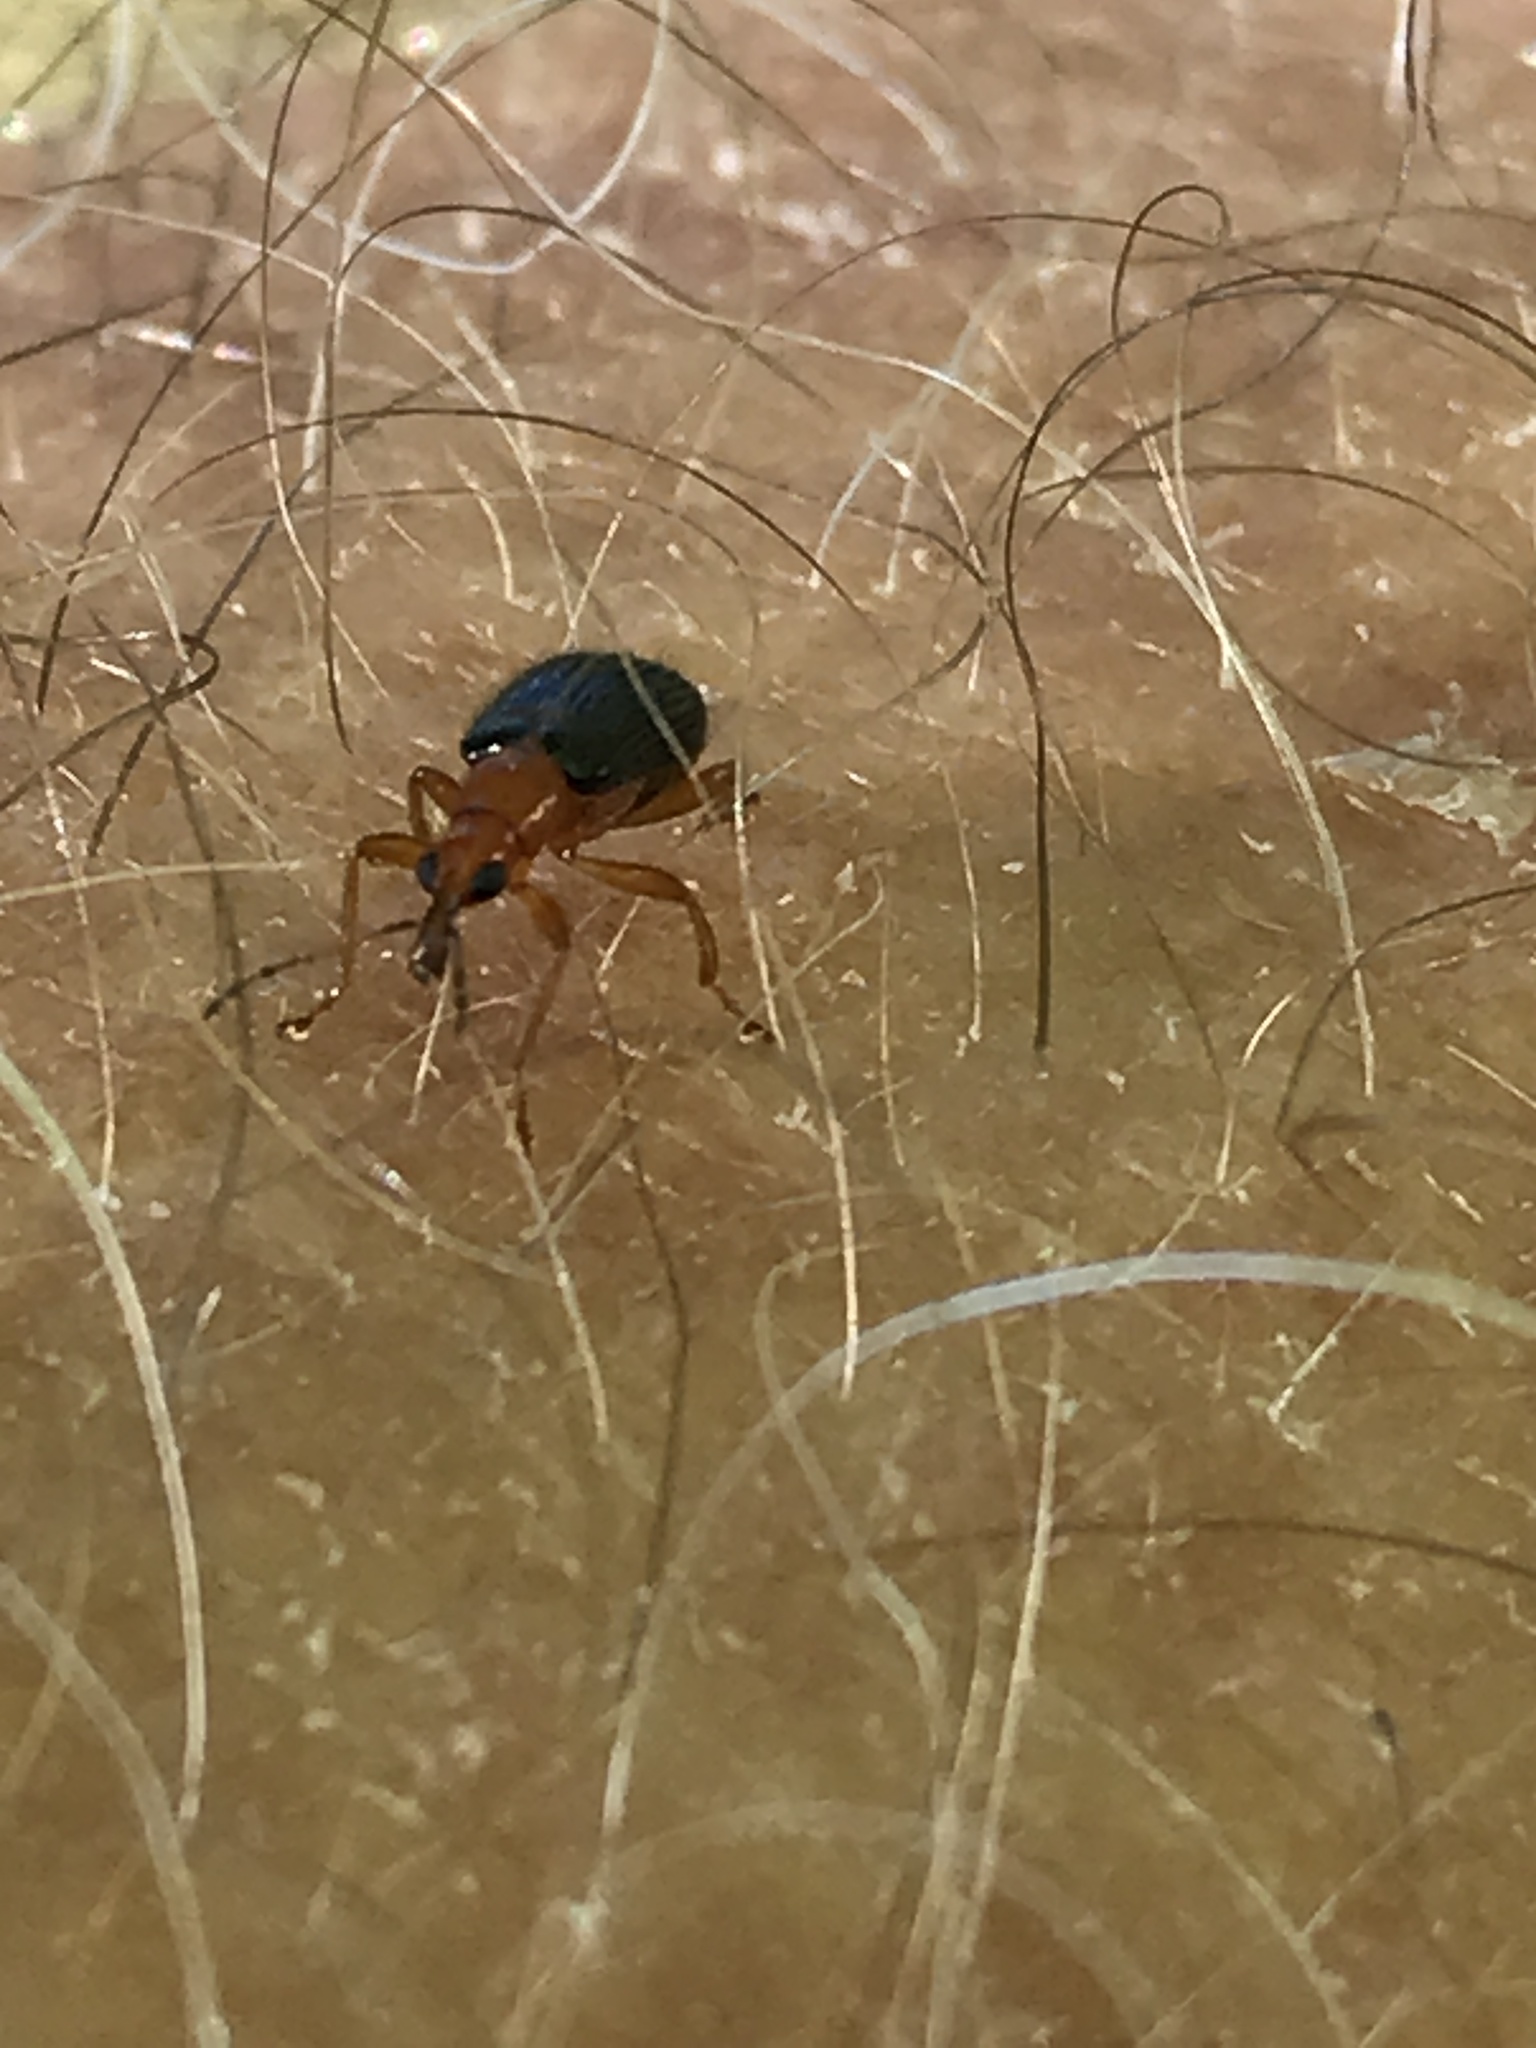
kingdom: Animalia
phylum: Arthropoda
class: Insecta
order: Coleoptera
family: Attelabidae
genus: Eugnamptus
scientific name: Eugnamptus angustatus
